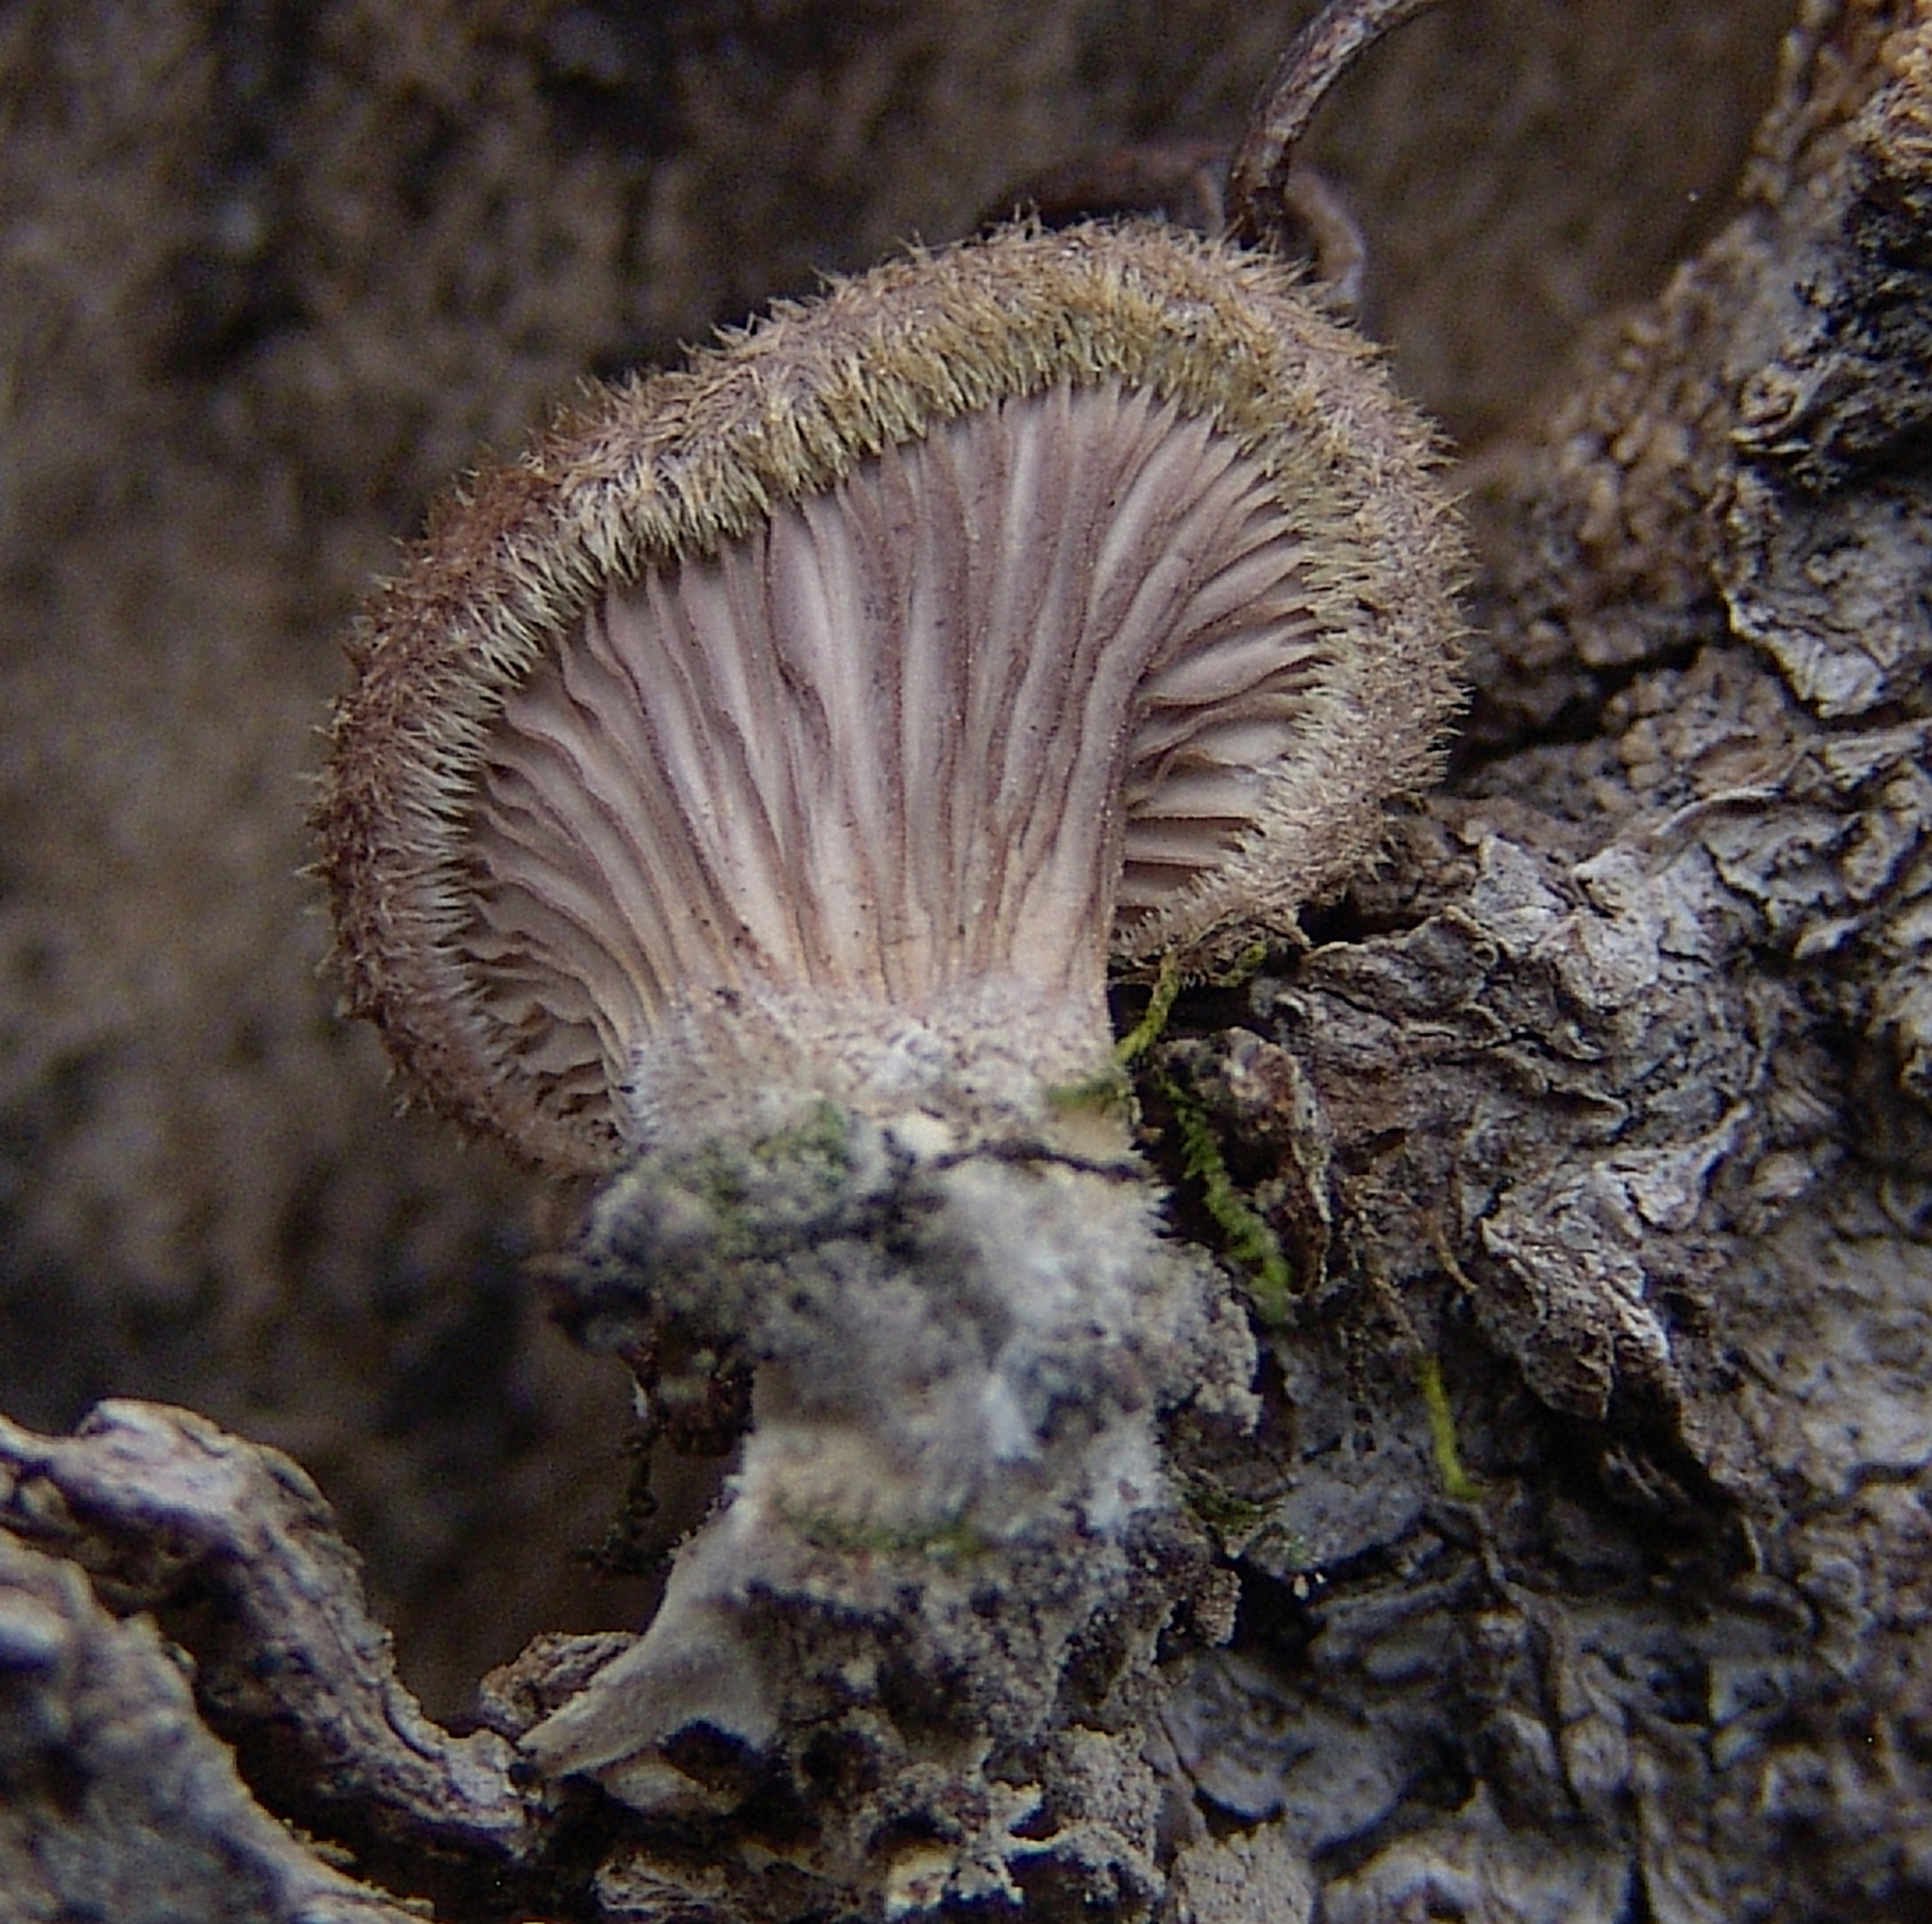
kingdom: Fungi
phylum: Basidiomycota
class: Agaricomycetes
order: Polyporales
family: Panaceae
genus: Panus
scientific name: Panus neostrigosus
